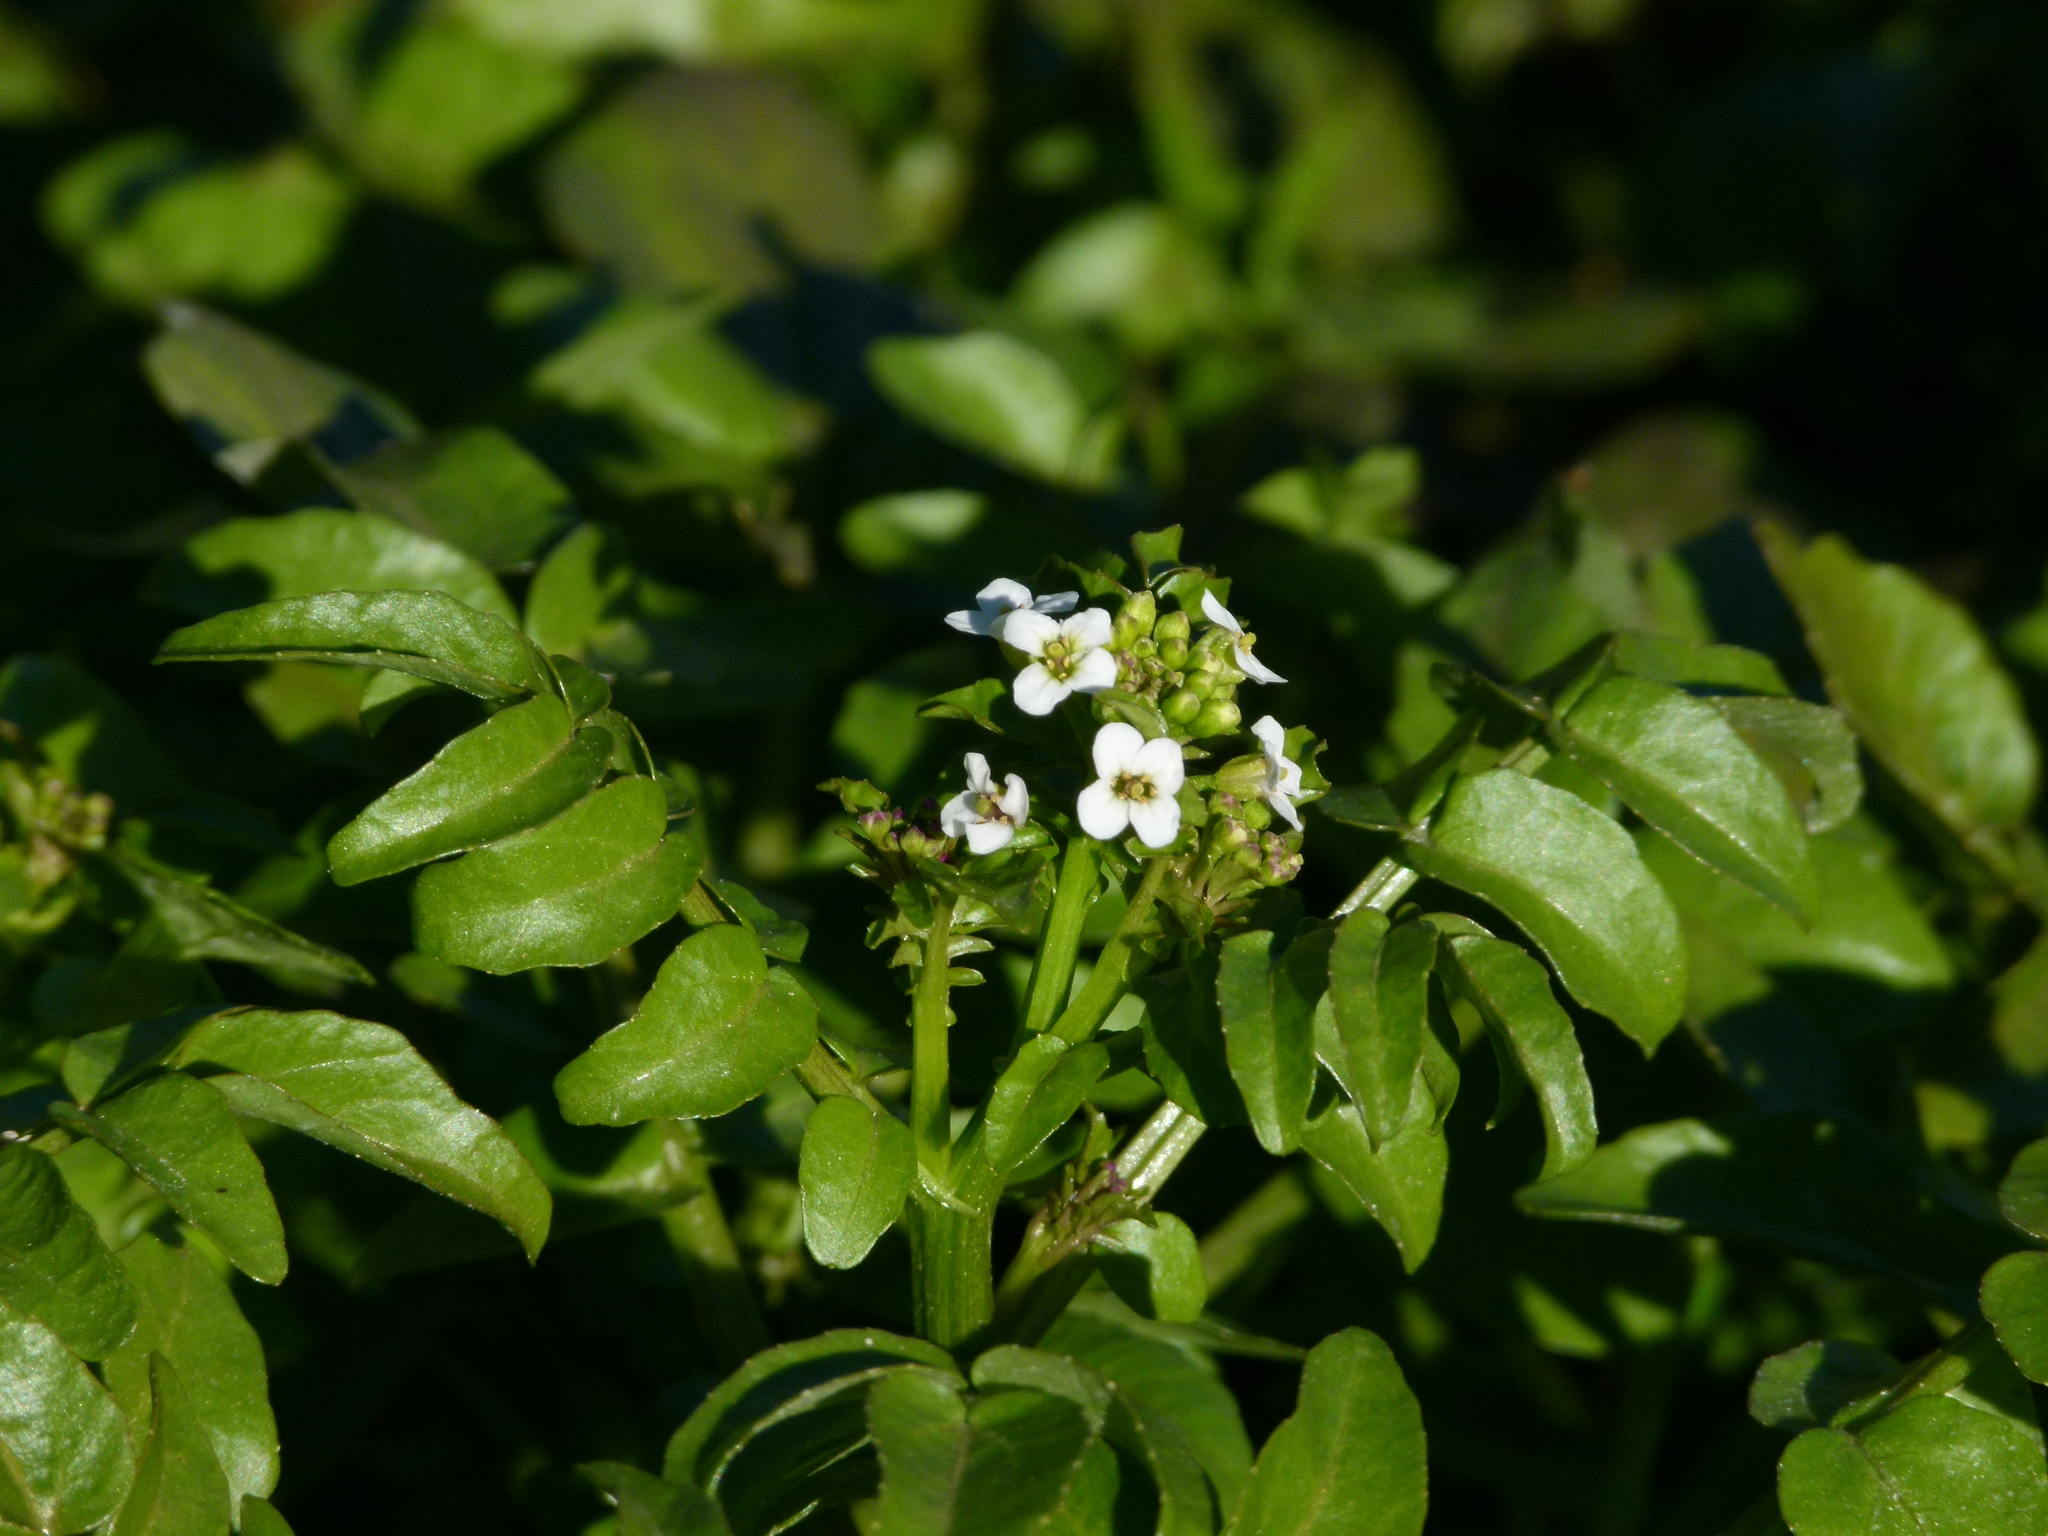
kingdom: Plantae
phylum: Tracheophyta
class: Magnoliopsida
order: Brassicales
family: Brassicaceae
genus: Nasturtium
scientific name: Nasturtium officinale
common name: Watercress
